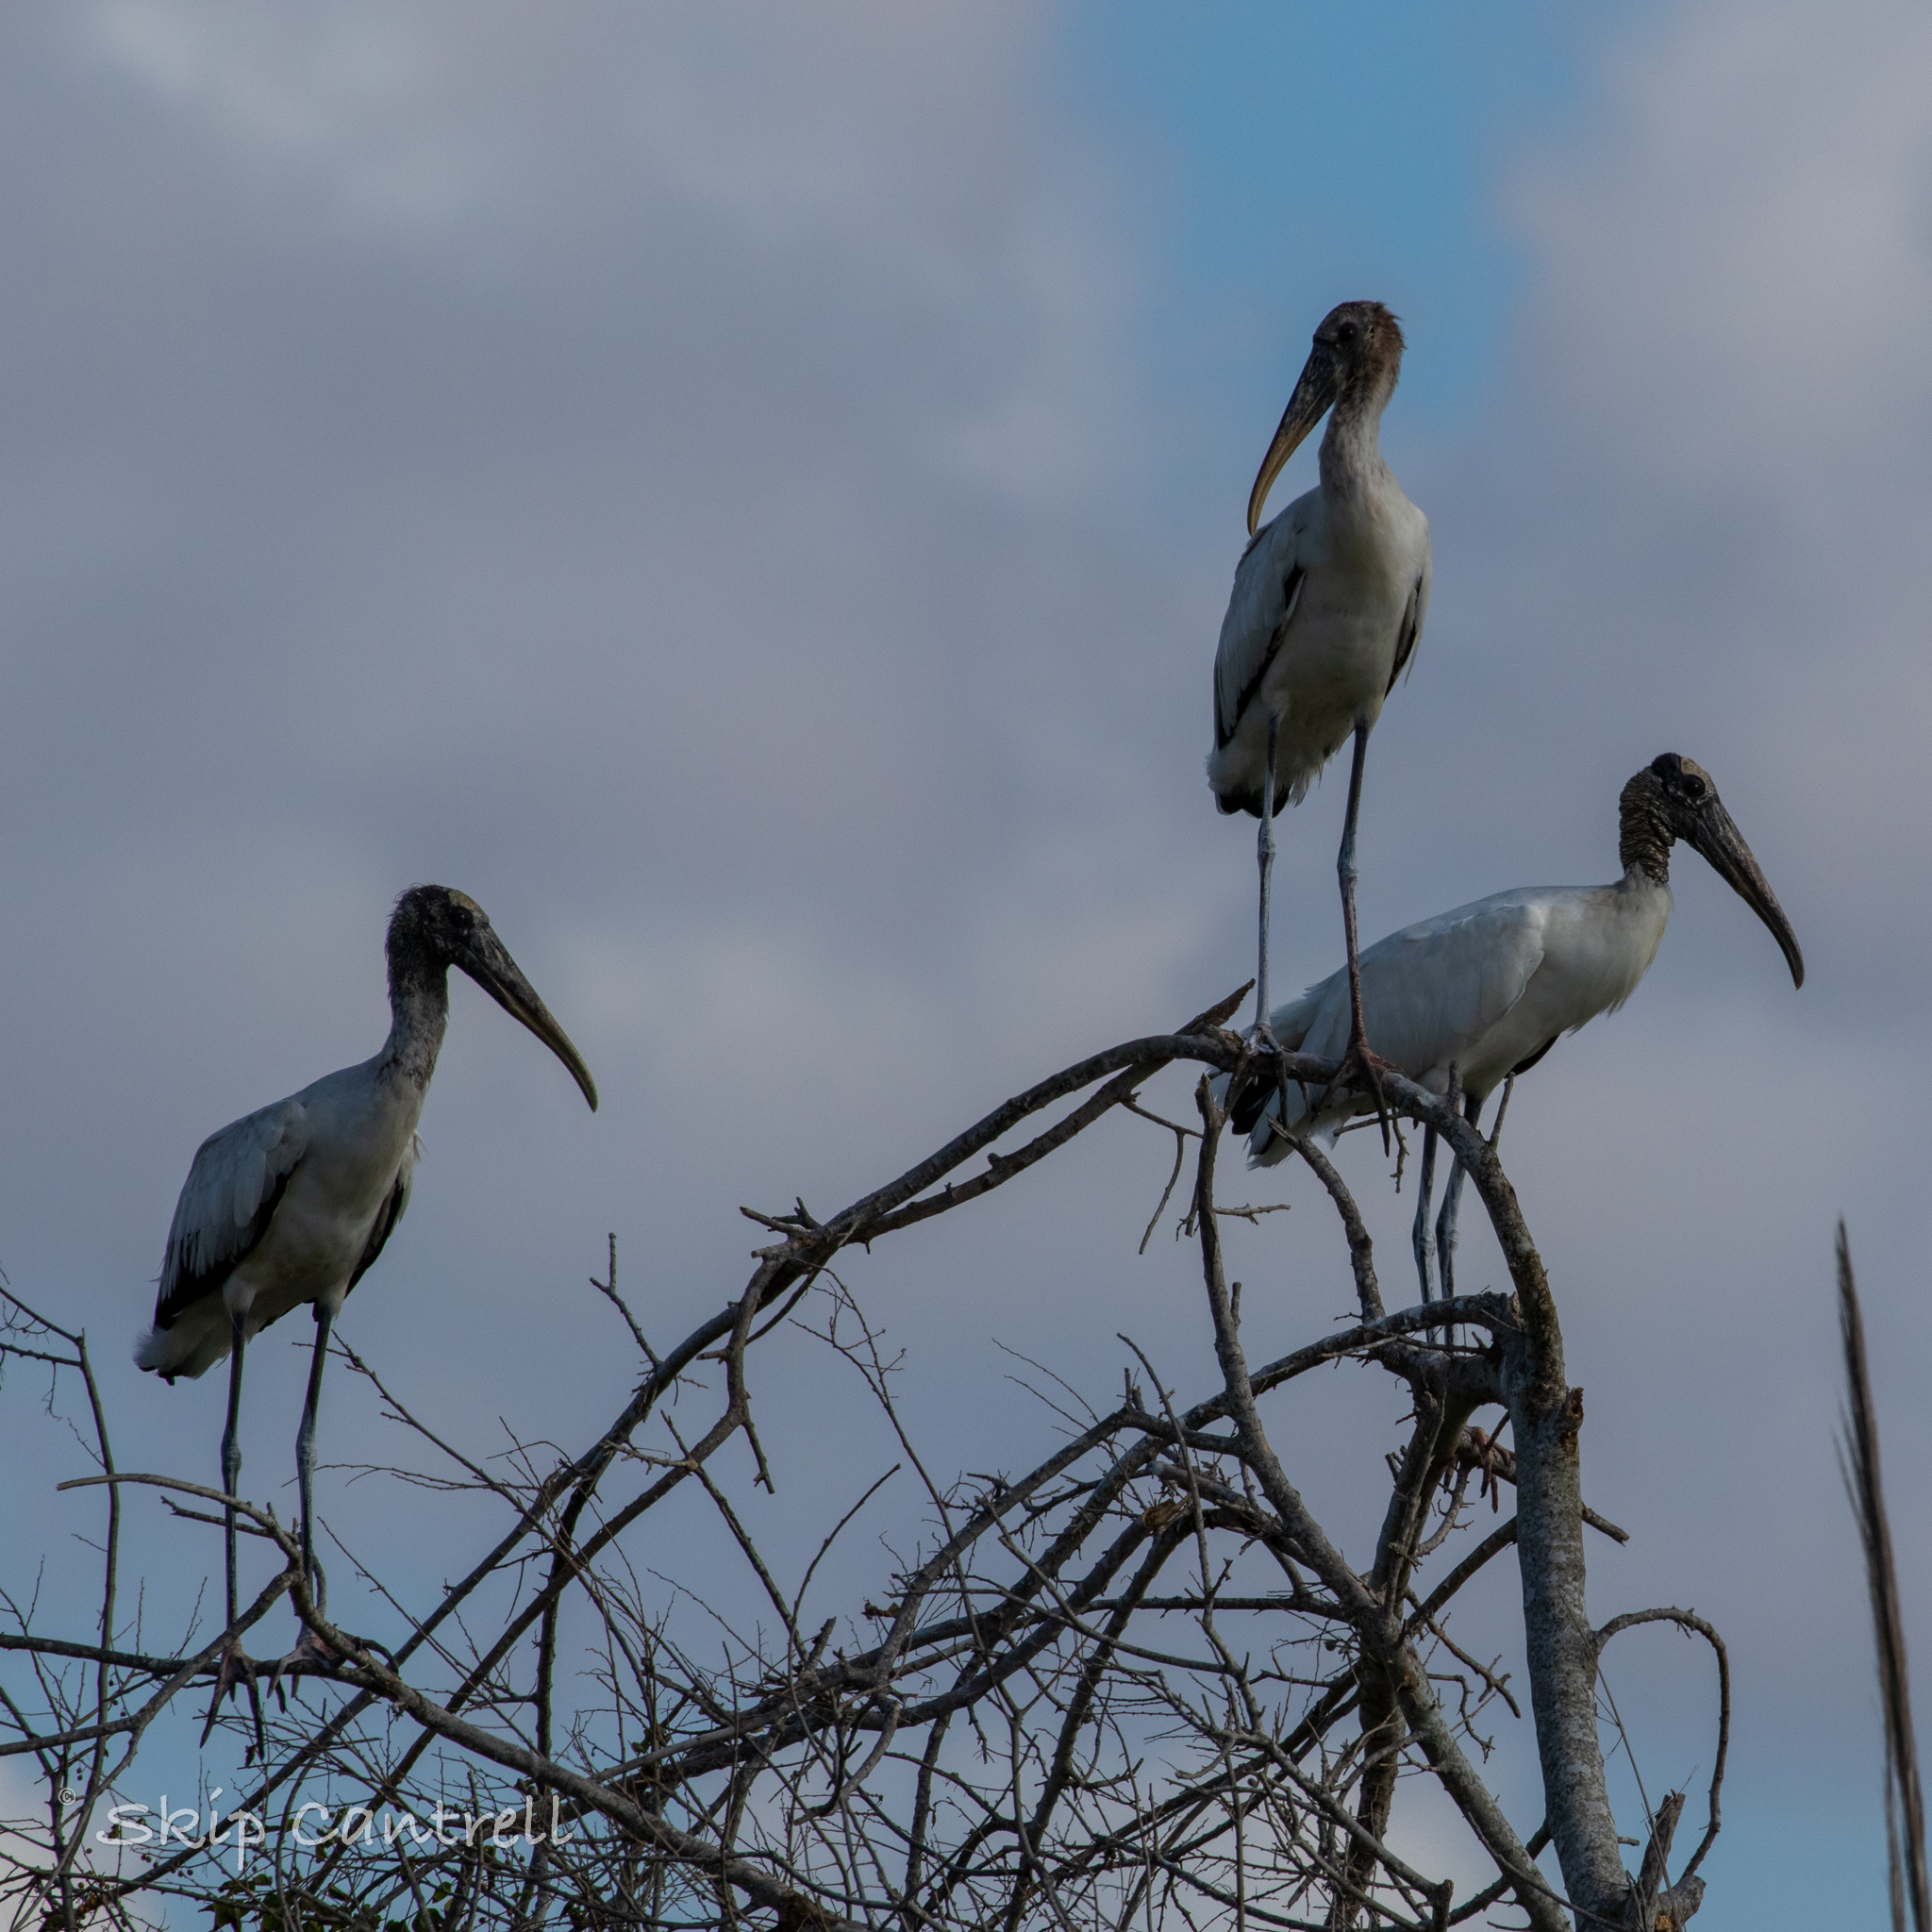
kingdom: Animalia
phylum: Chordata
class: Aves
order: Ciconiiformes
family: Ciconiidae
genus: Mycteria
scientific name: Mycteria americana
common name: Wood stork
